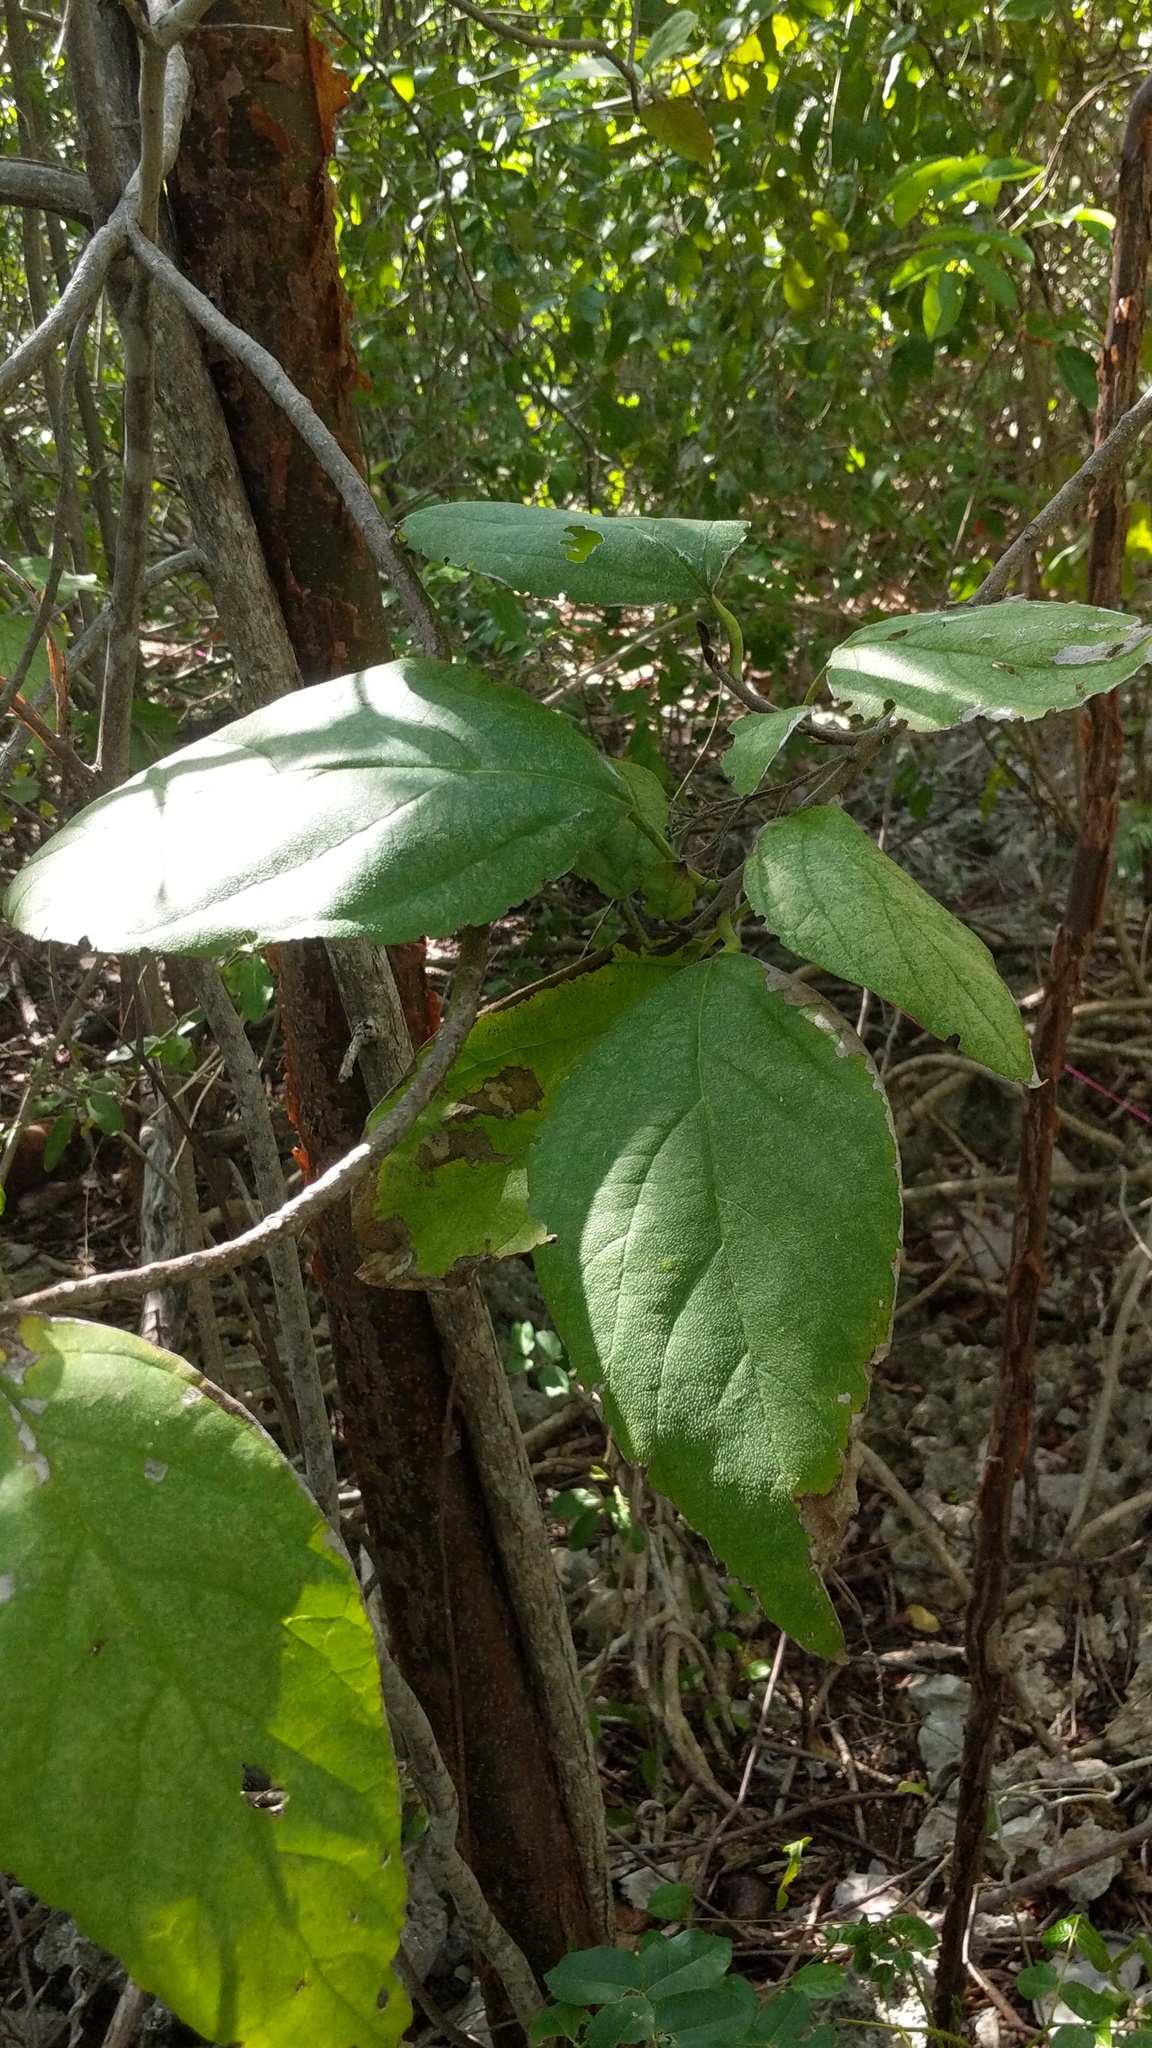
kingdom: Plantae
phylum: Tracheophyta
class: Magnoliopsida
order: Boraginales
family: Cordiaceae
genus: Cordia
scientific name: Cordia sebestena
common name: Largeleaf geigertree
